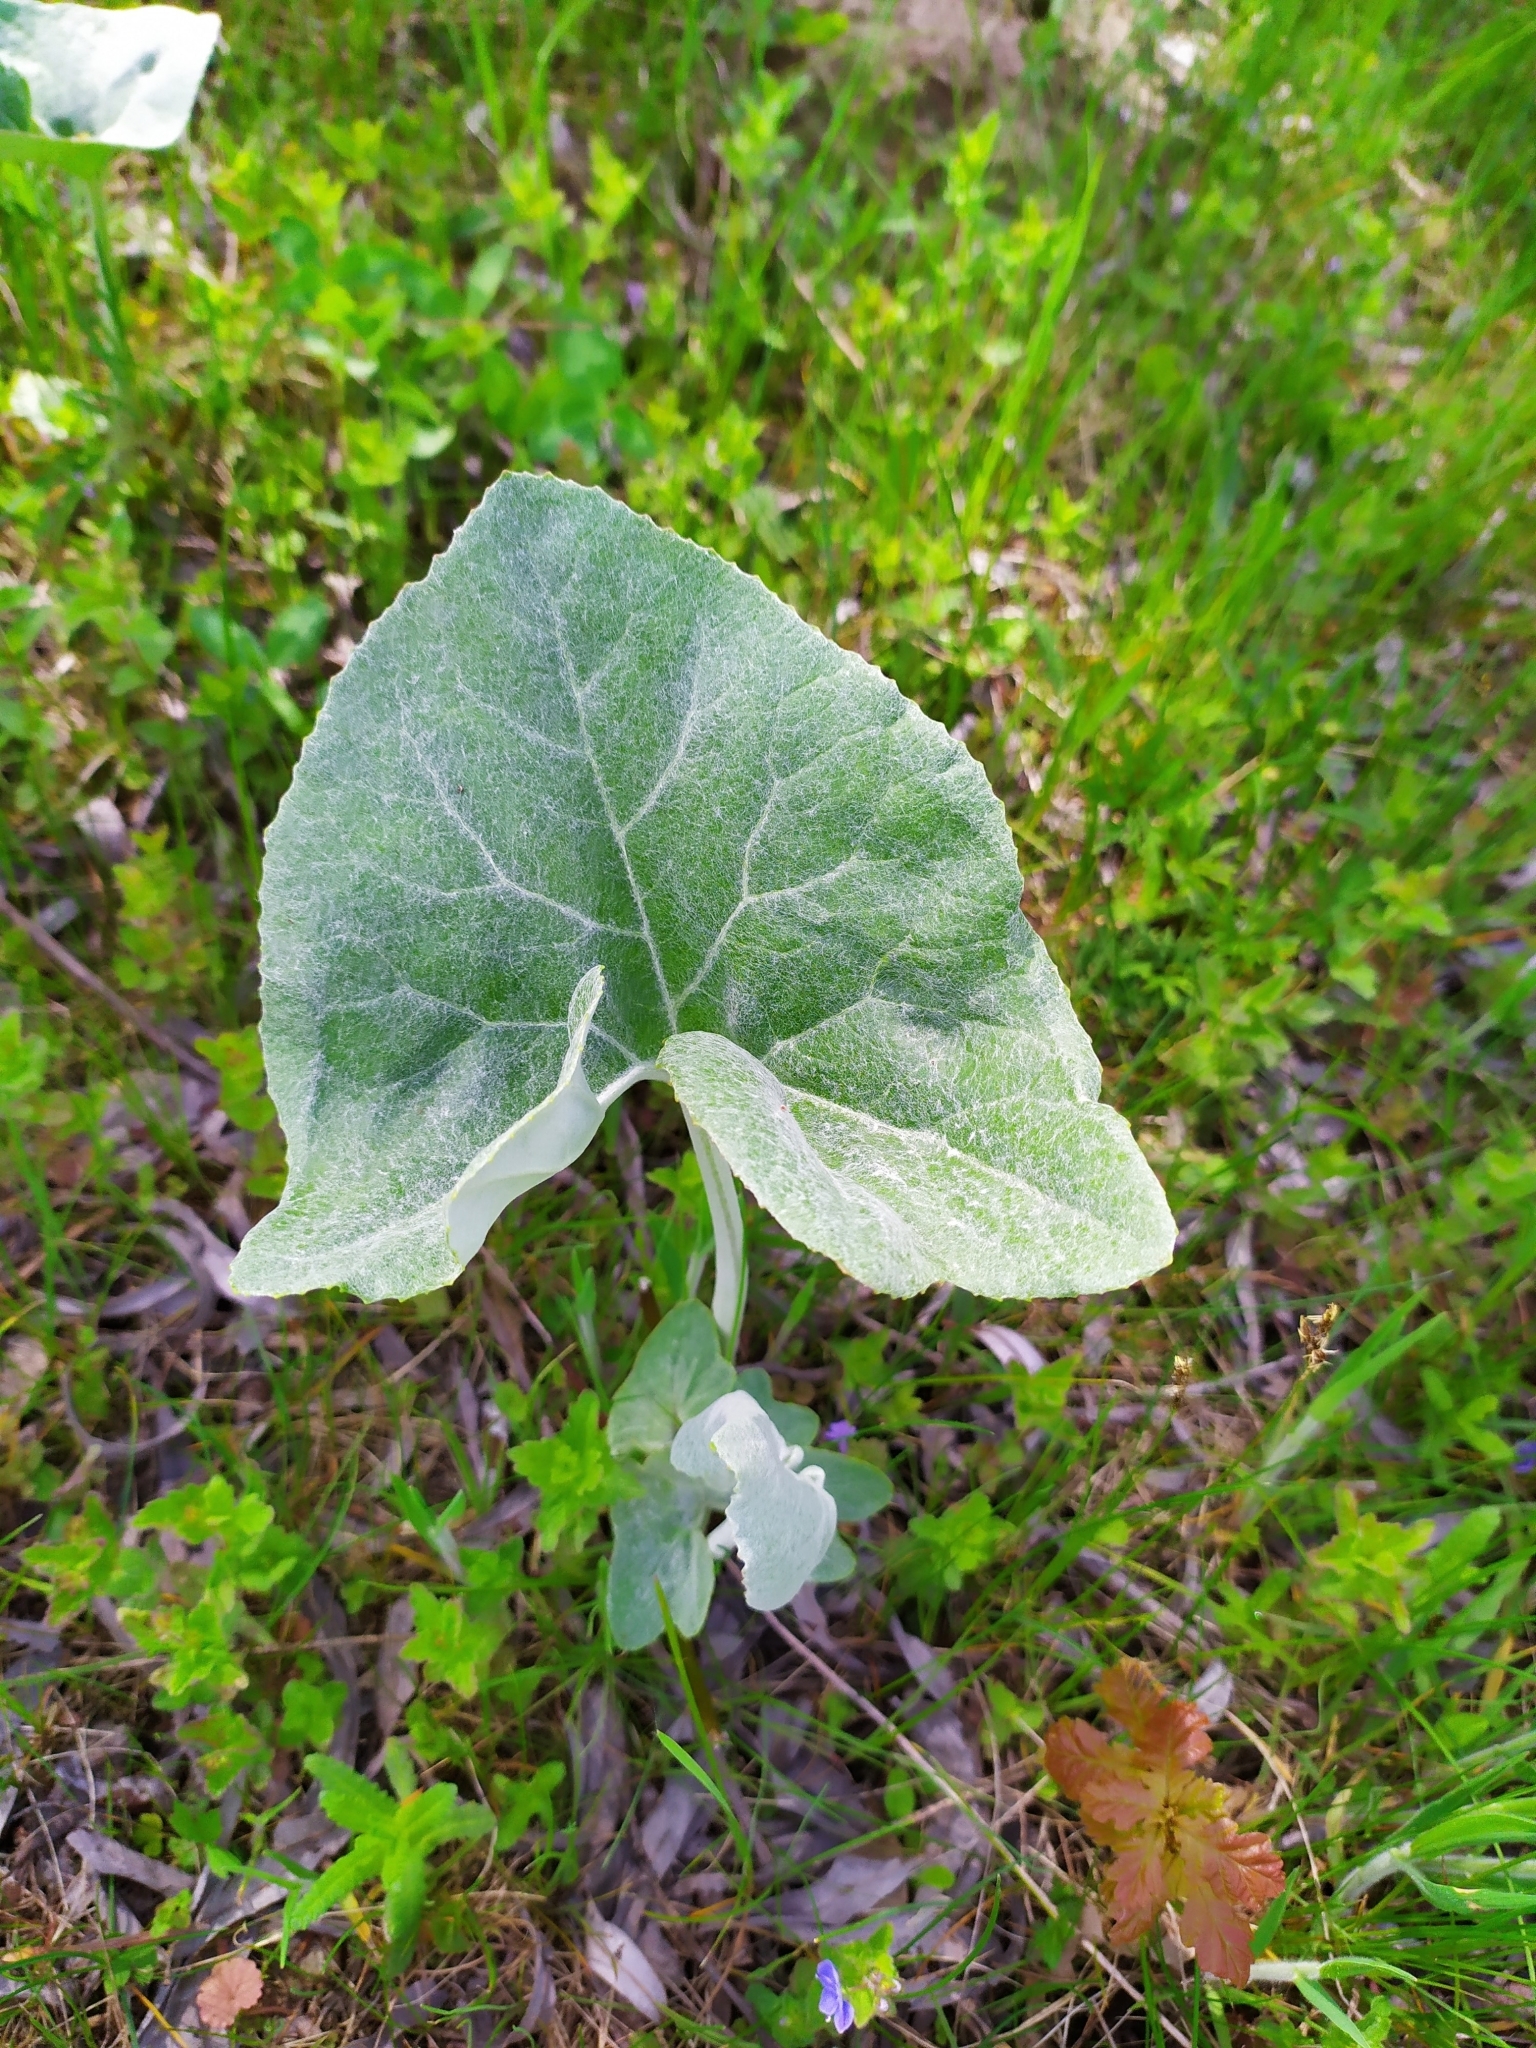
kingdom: Plantae
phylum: Tracheophyta
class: Magnoliopsida
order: Asterales
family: Asteraceae
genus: Petasites
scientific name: Petasites spurius
